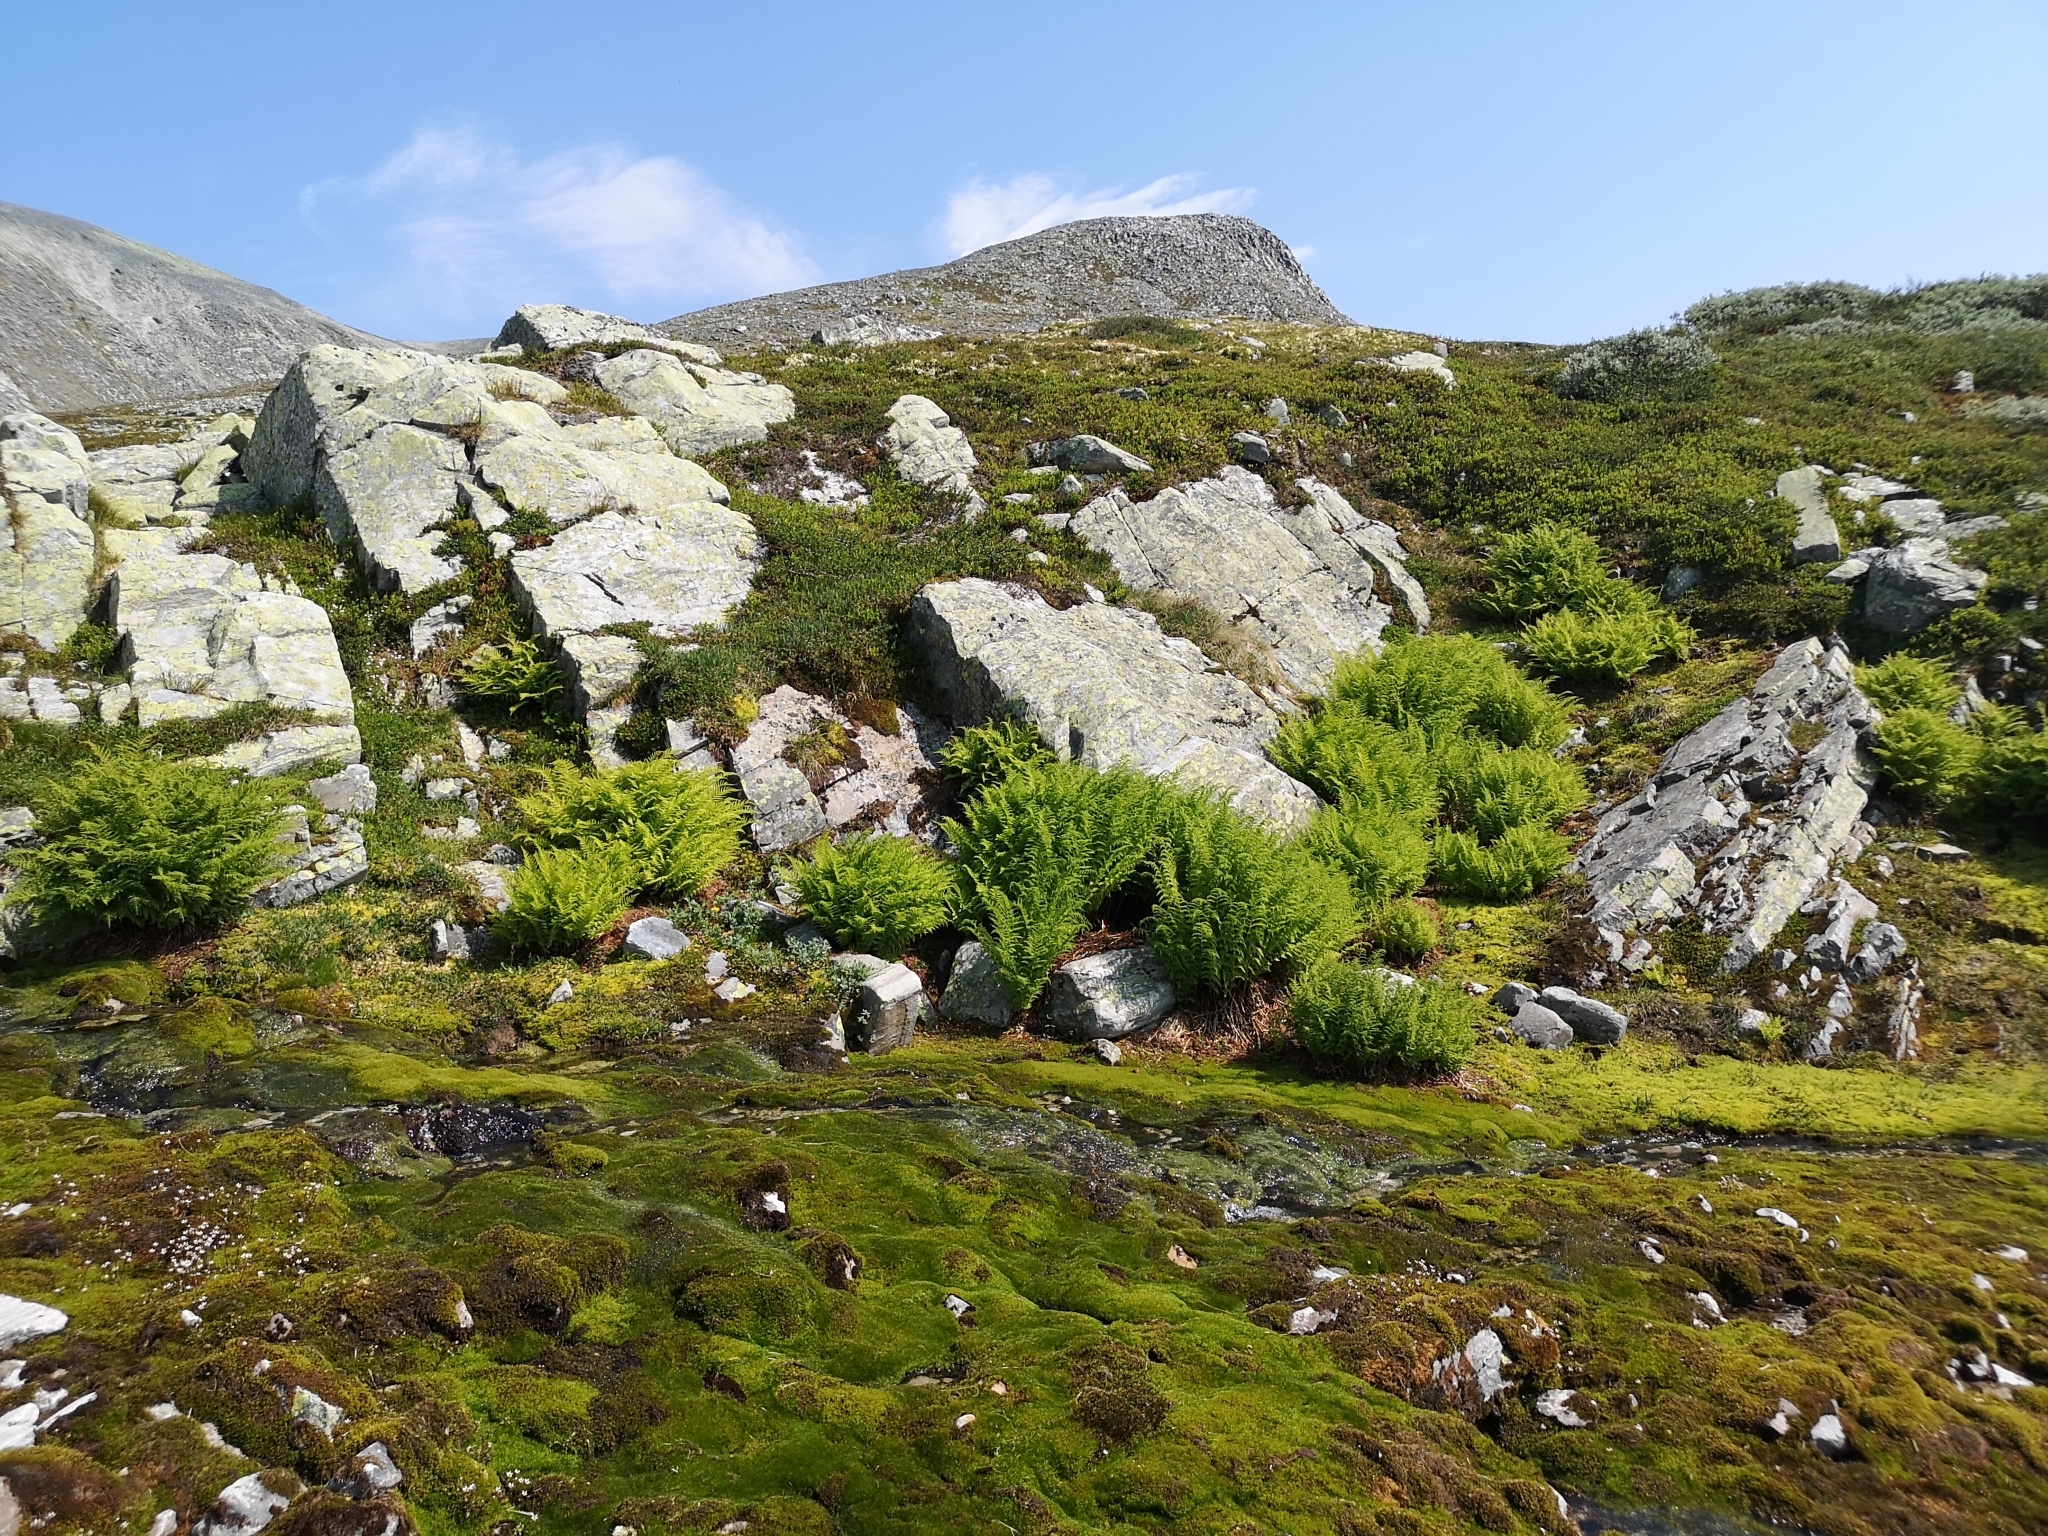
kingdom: Plantae
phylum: Tracheophyta
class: Polypodiopsida
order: Polypodiales
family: Athyriaceae
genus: Pseudathyrium
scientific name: Pseudathyrium alpestre
